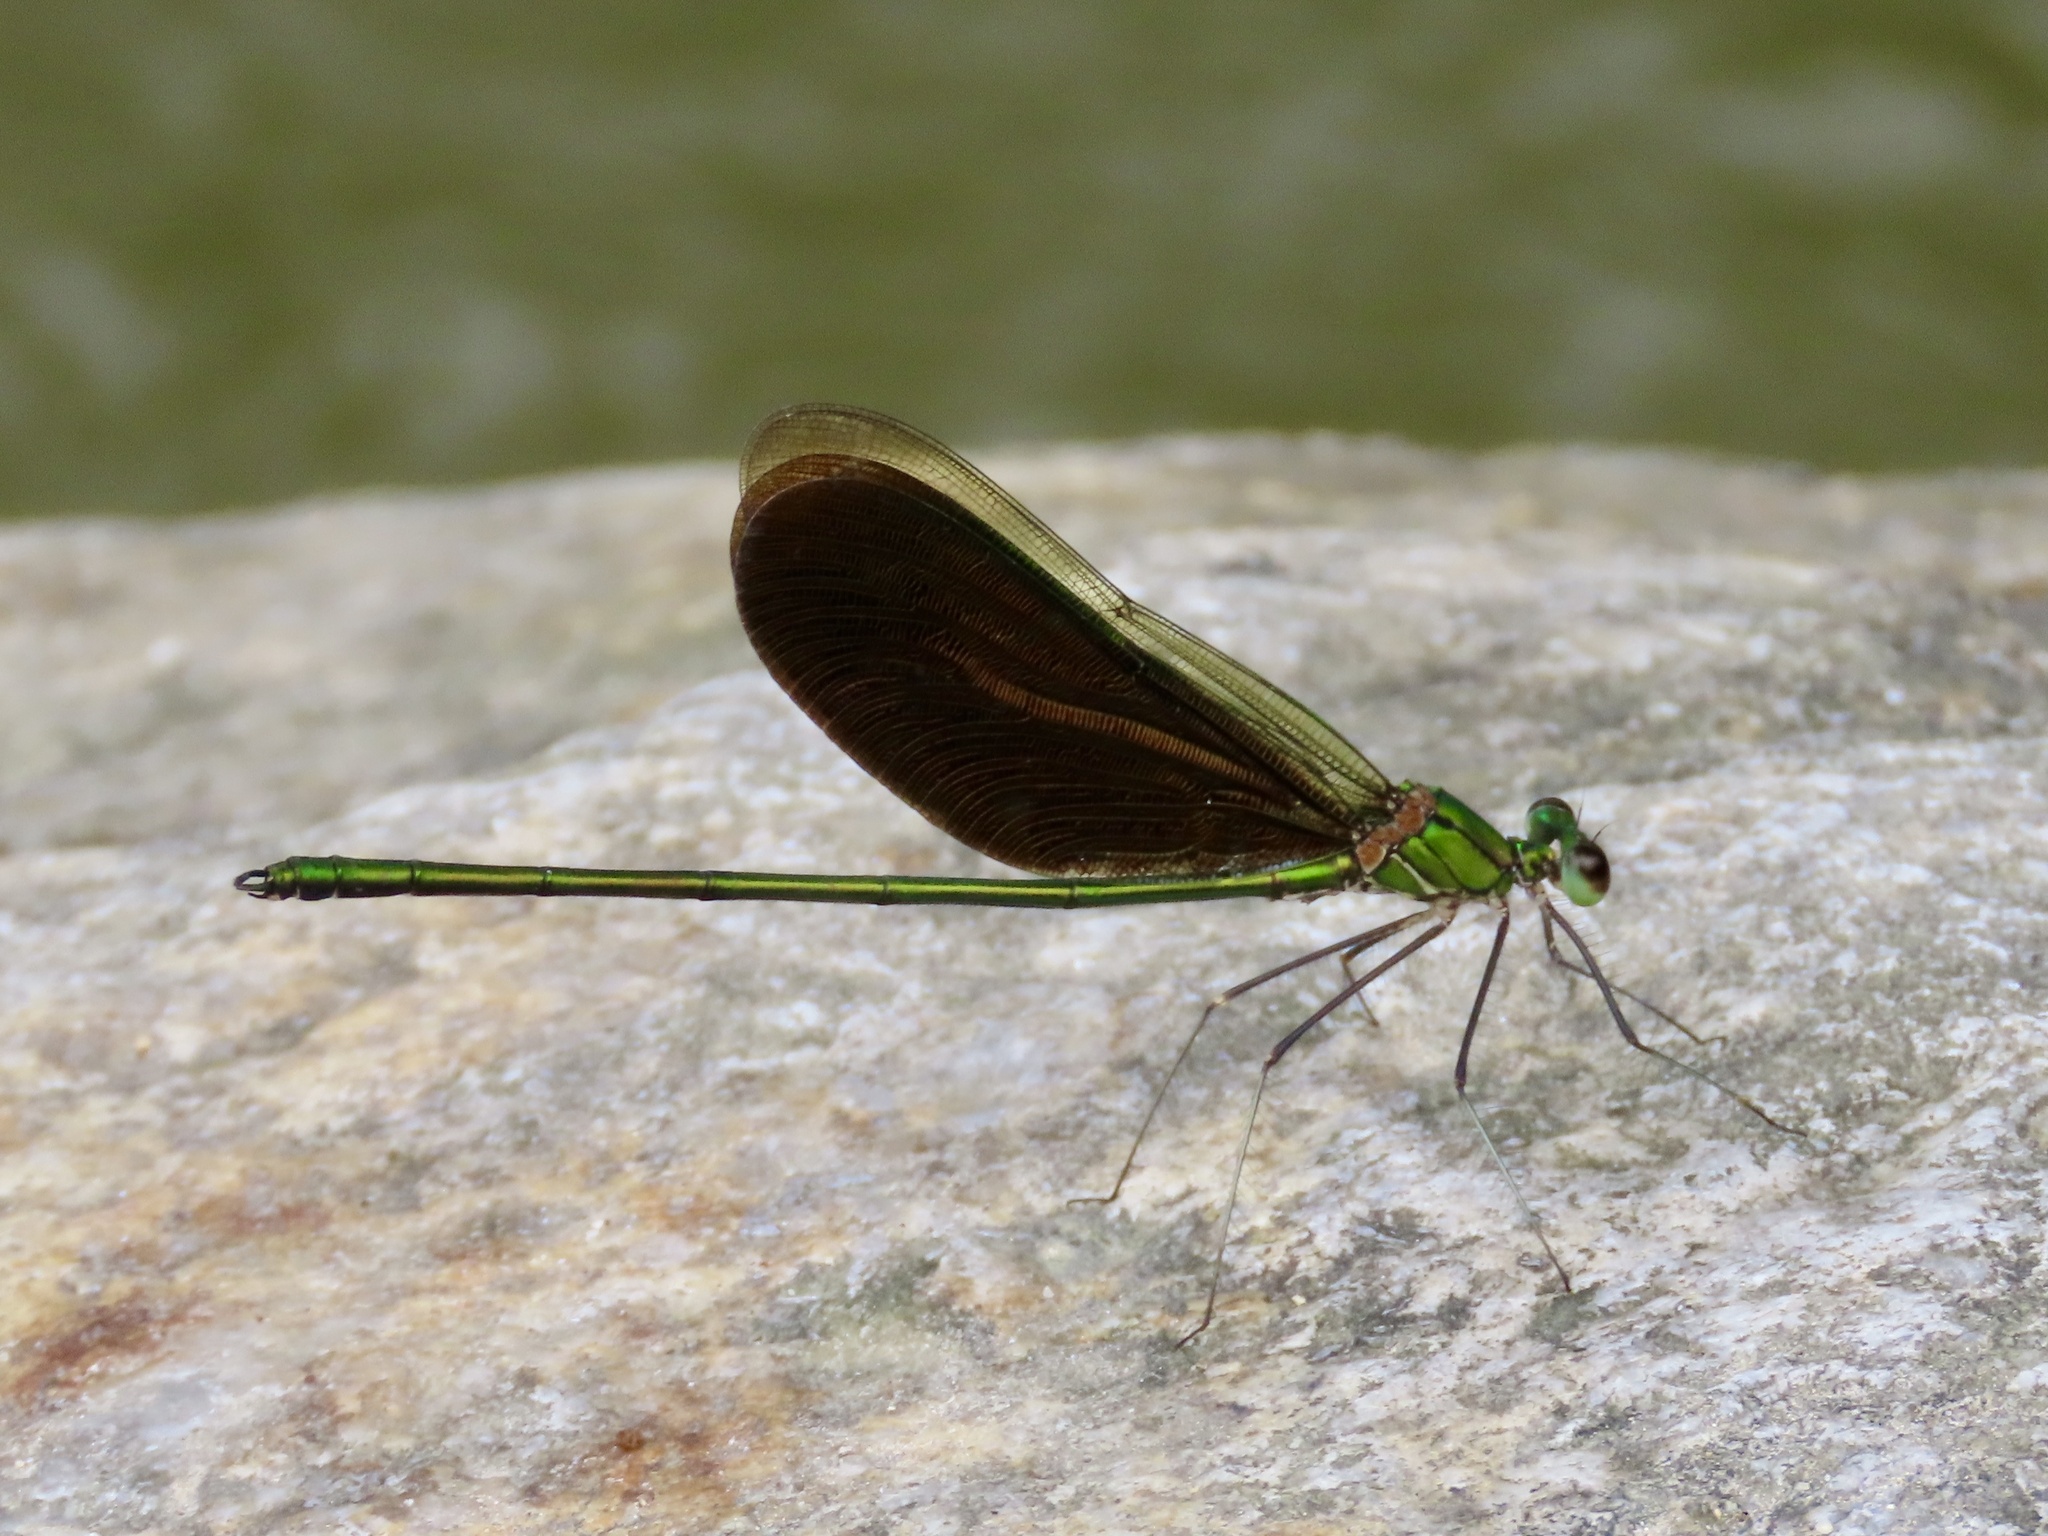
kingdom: Animalia
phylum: Arthropoda
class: Insecta
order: Odonata
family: Calopterygidae
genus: Neurobasis
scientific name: Neurobasis chinensis
